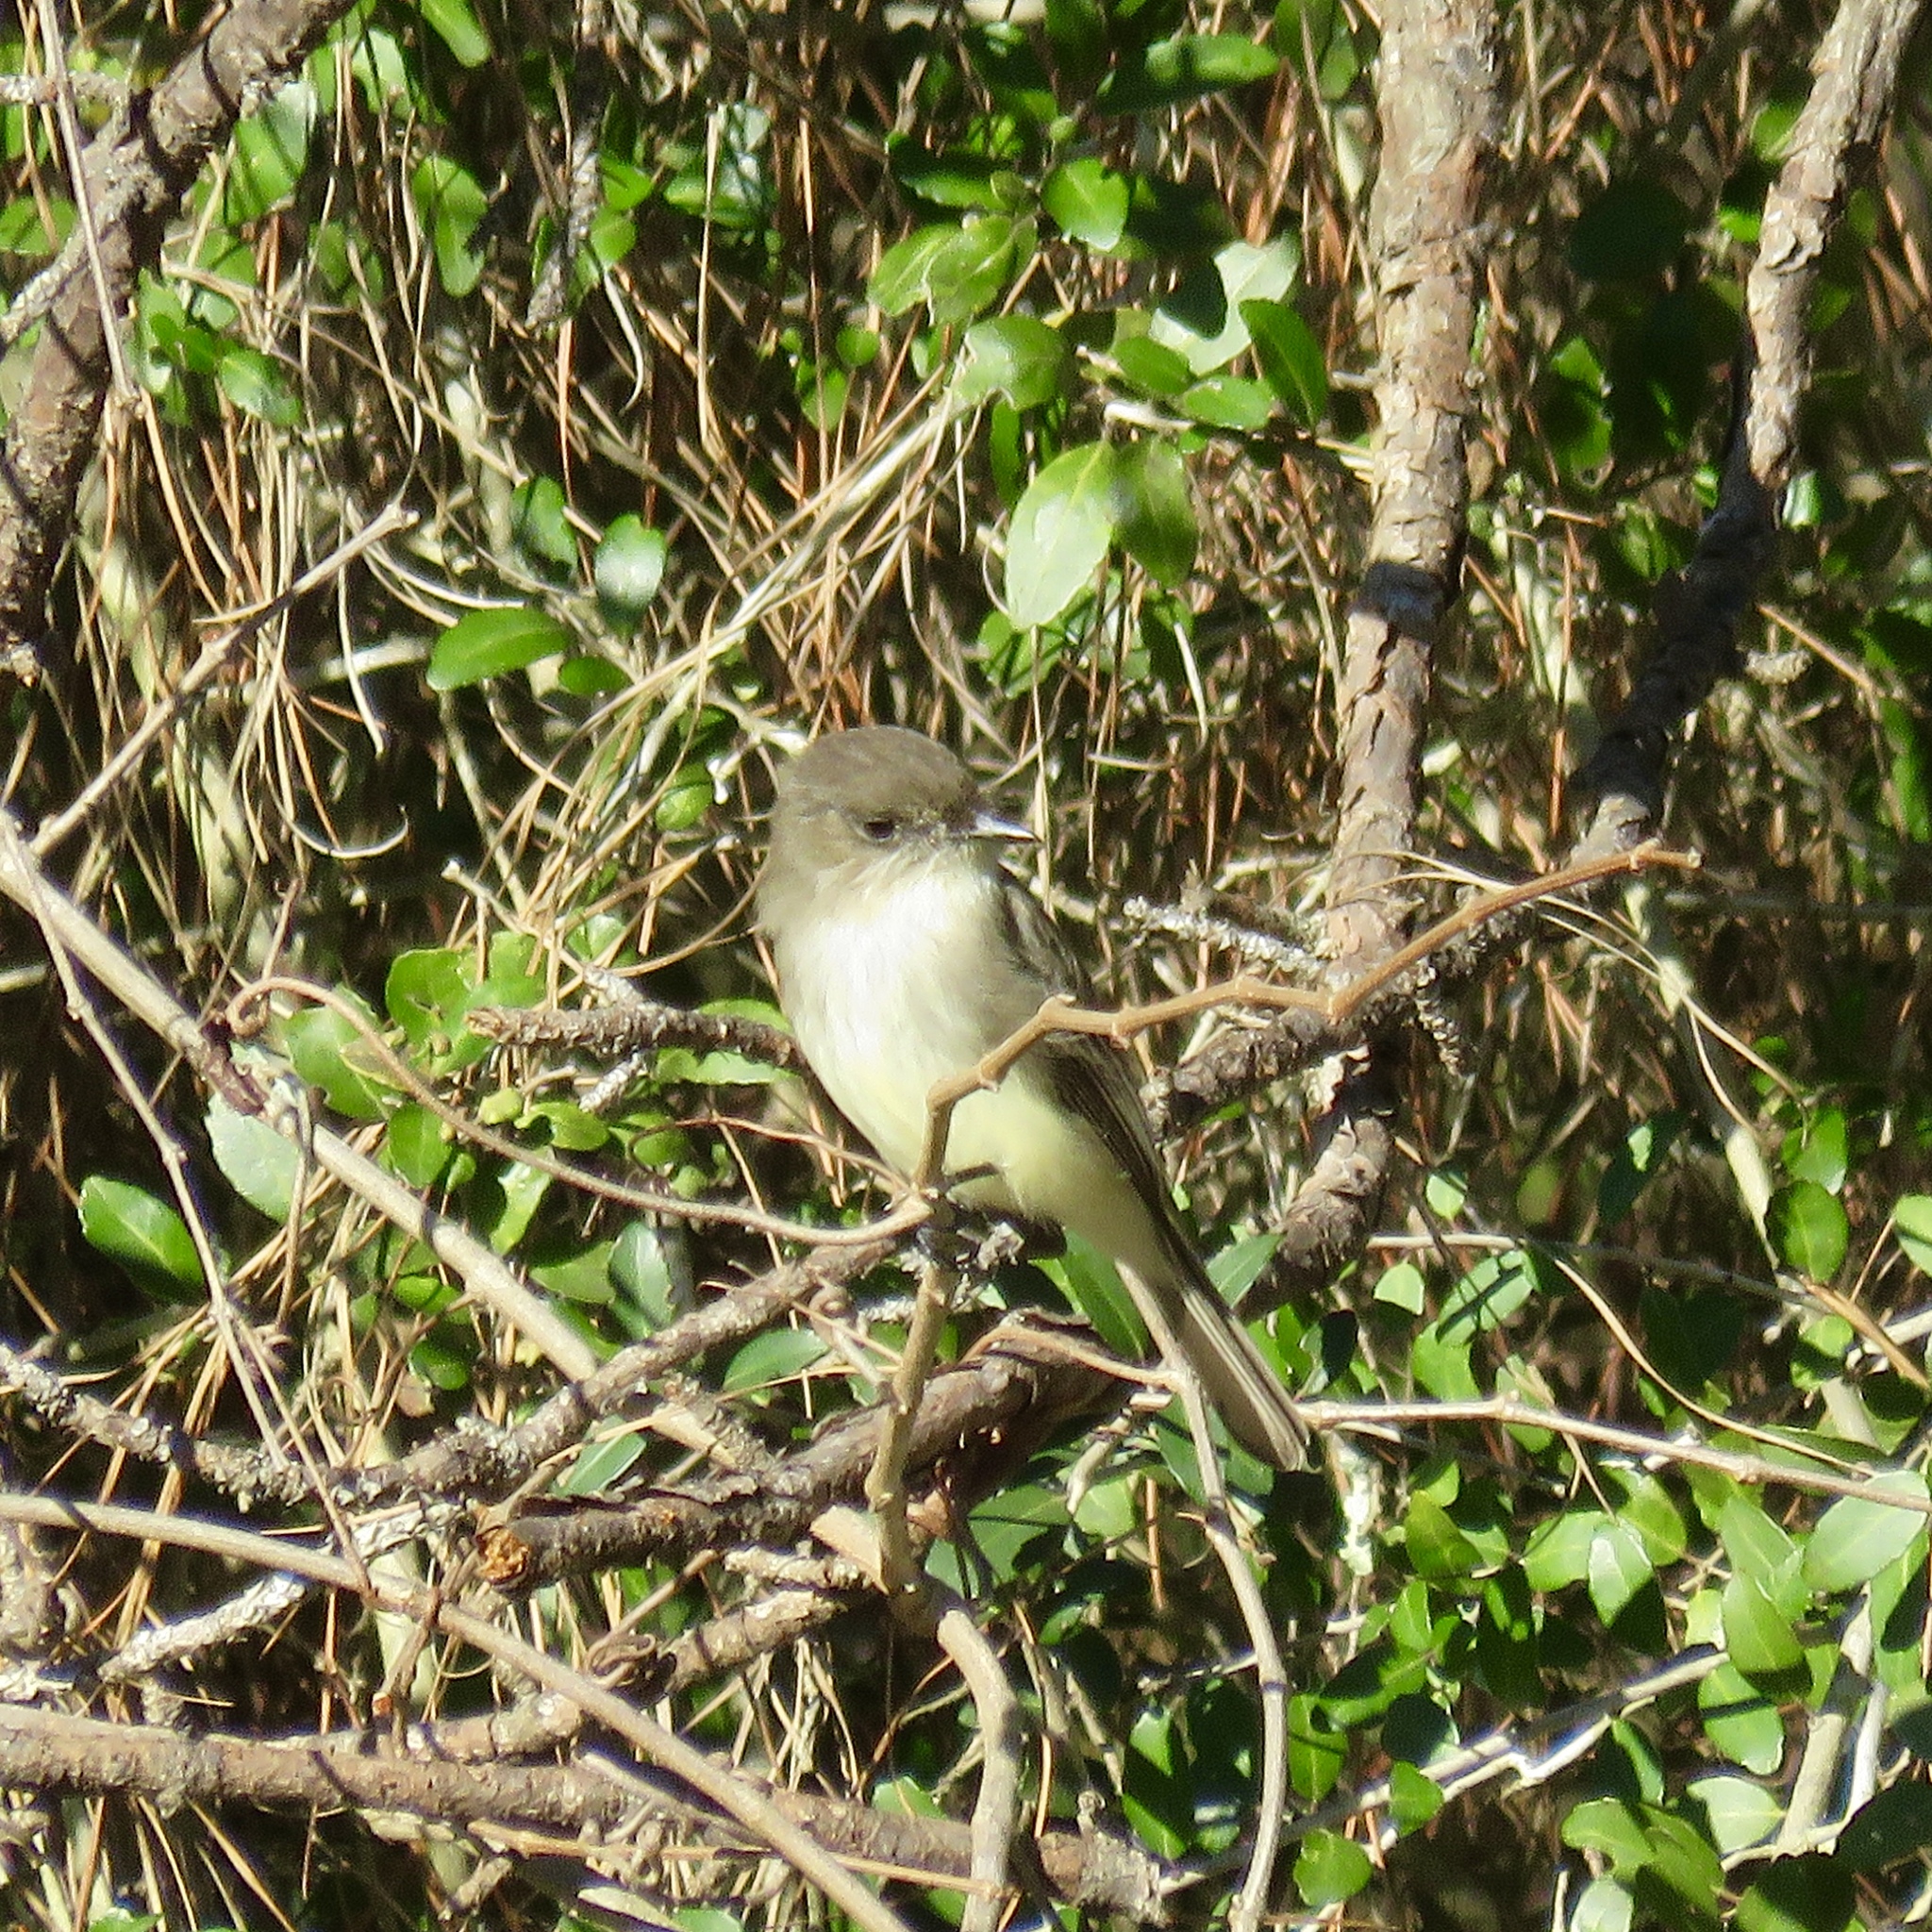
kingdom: Animalia
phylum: Chordata
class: Aves
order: Passeriformes
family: Tyrannidae
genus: Sayornis
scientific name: Sayornis phoebe
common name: Eastern phoebe
